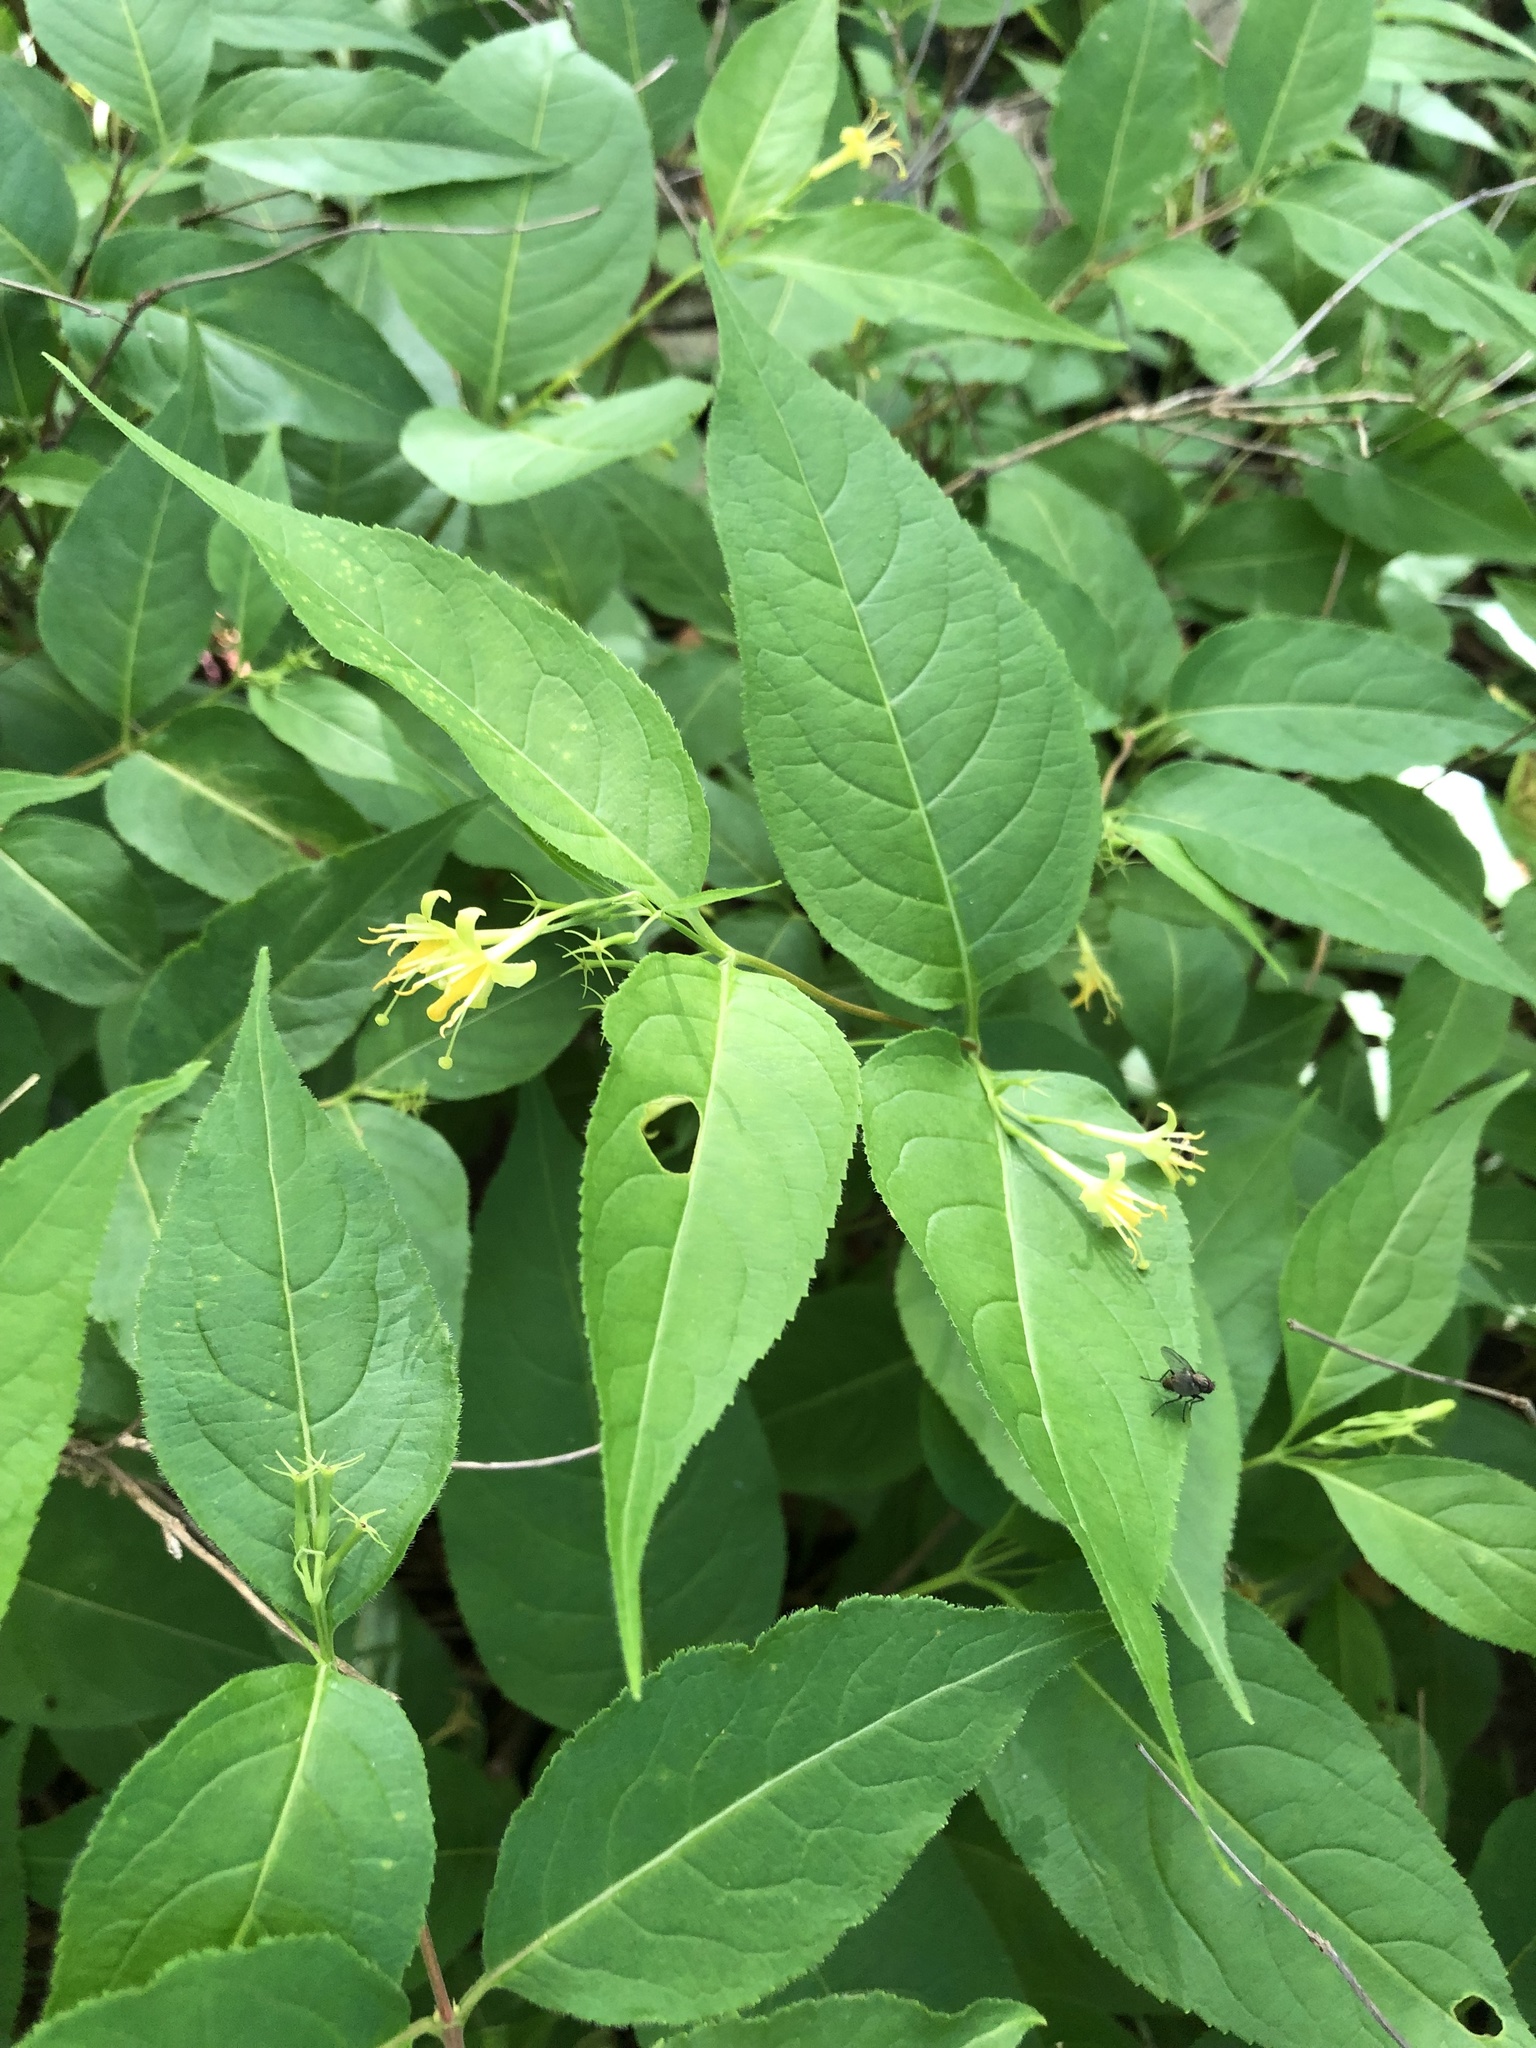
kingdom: Plantae
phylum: Tracheophyta
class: Magnoliopsida
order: Dipsacales
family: Caprifoliaceae
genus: Diervilla
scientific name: Diervilla lonicera
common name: Bush-honeysuckle
